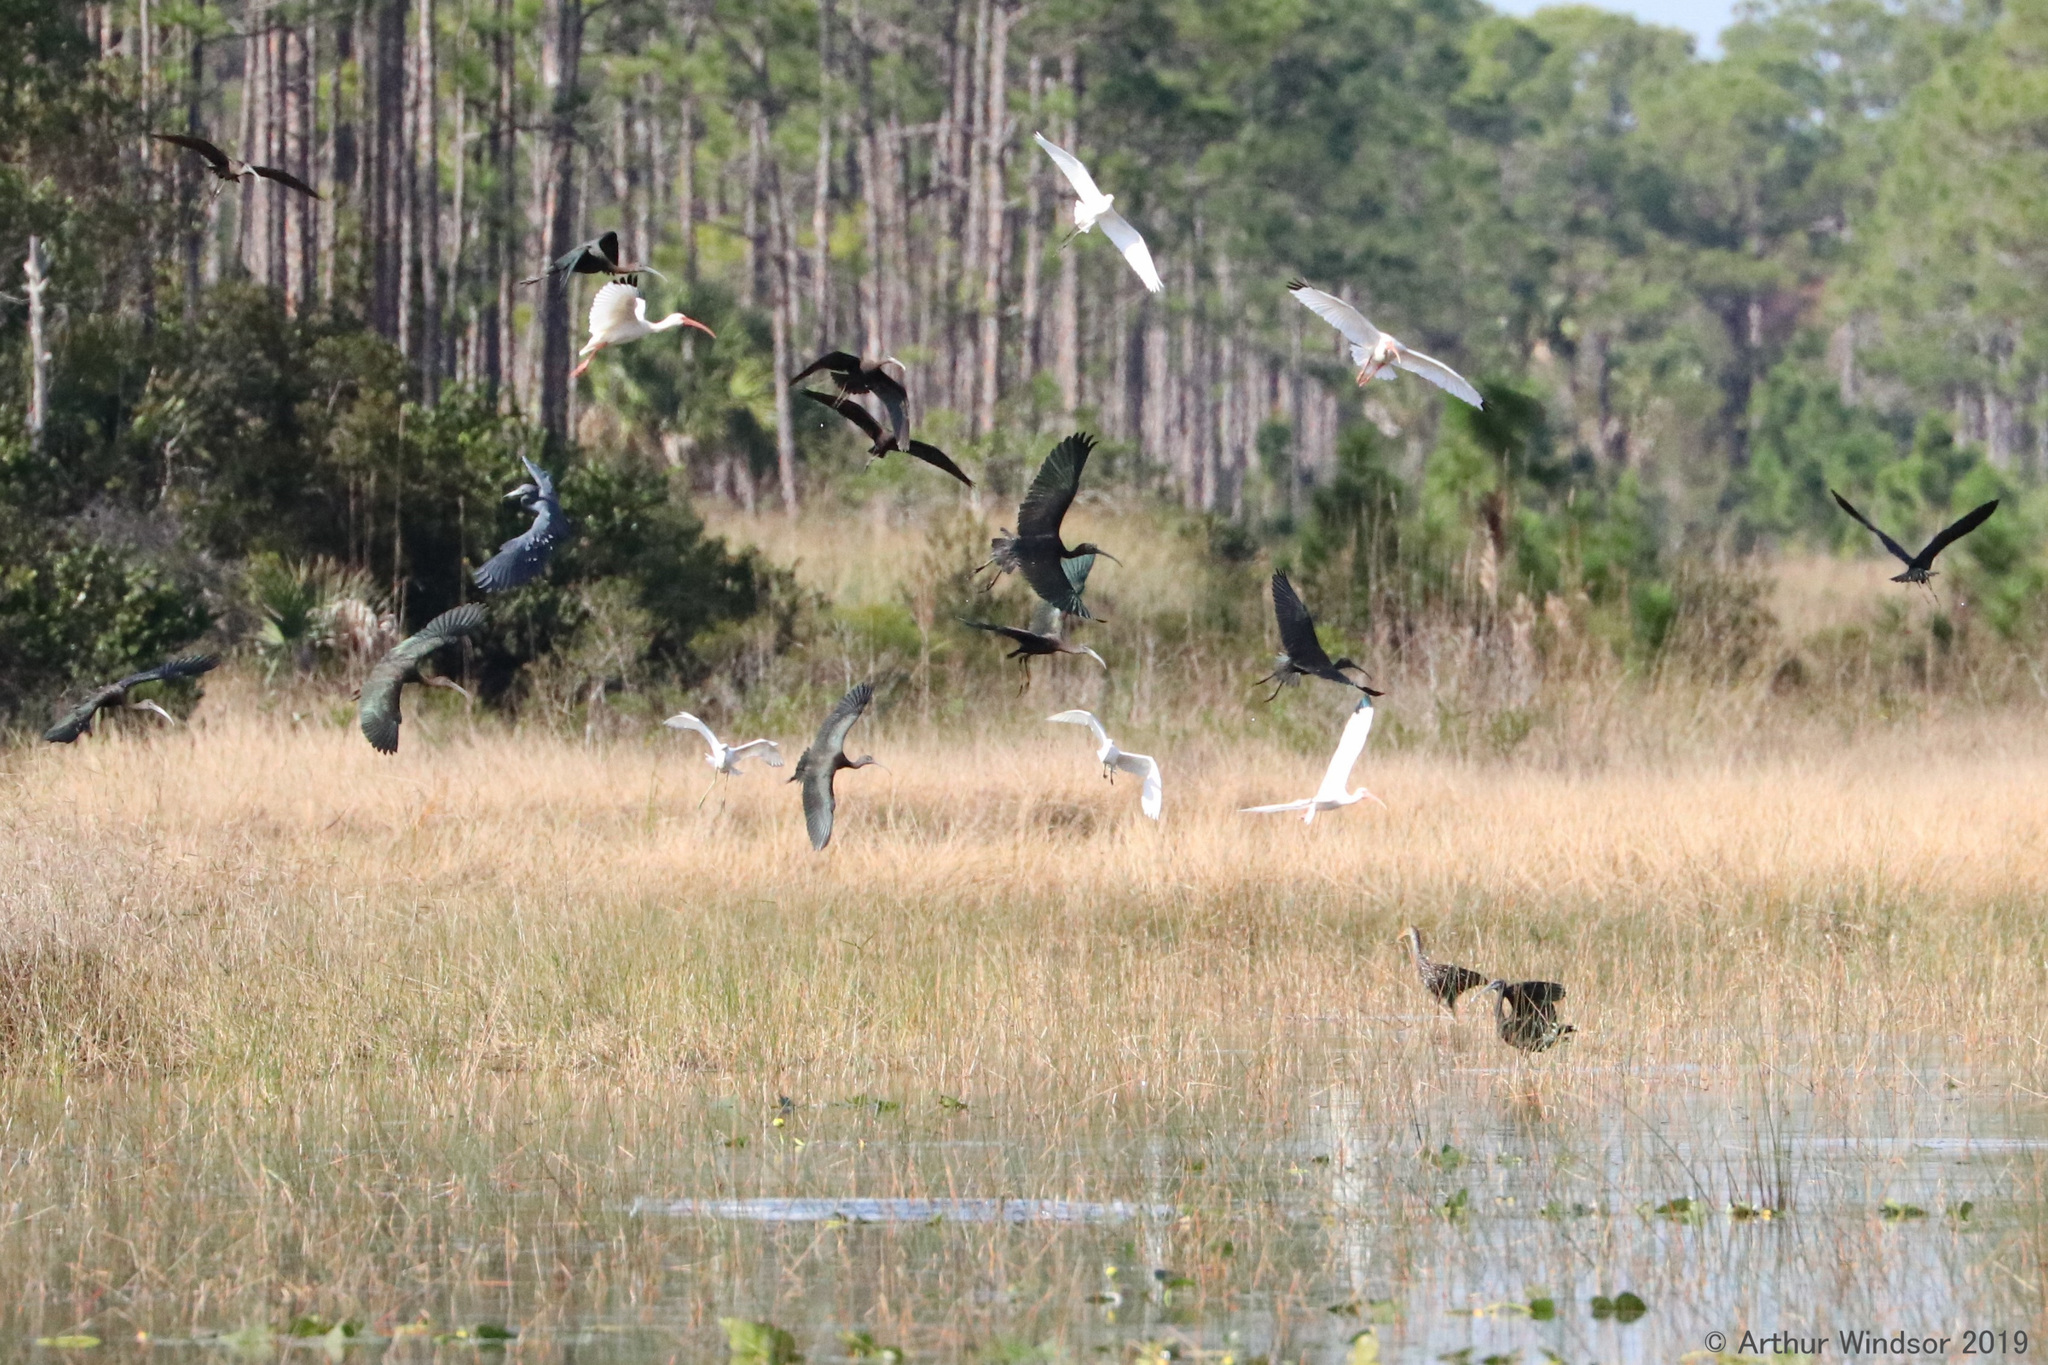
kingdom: Animalia
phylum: Chordata
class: Aves
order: Pelecaniformes
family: Threskiornithidae
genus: Plegadis
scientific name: Plegadis falcinellus
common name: Glossy ibis
